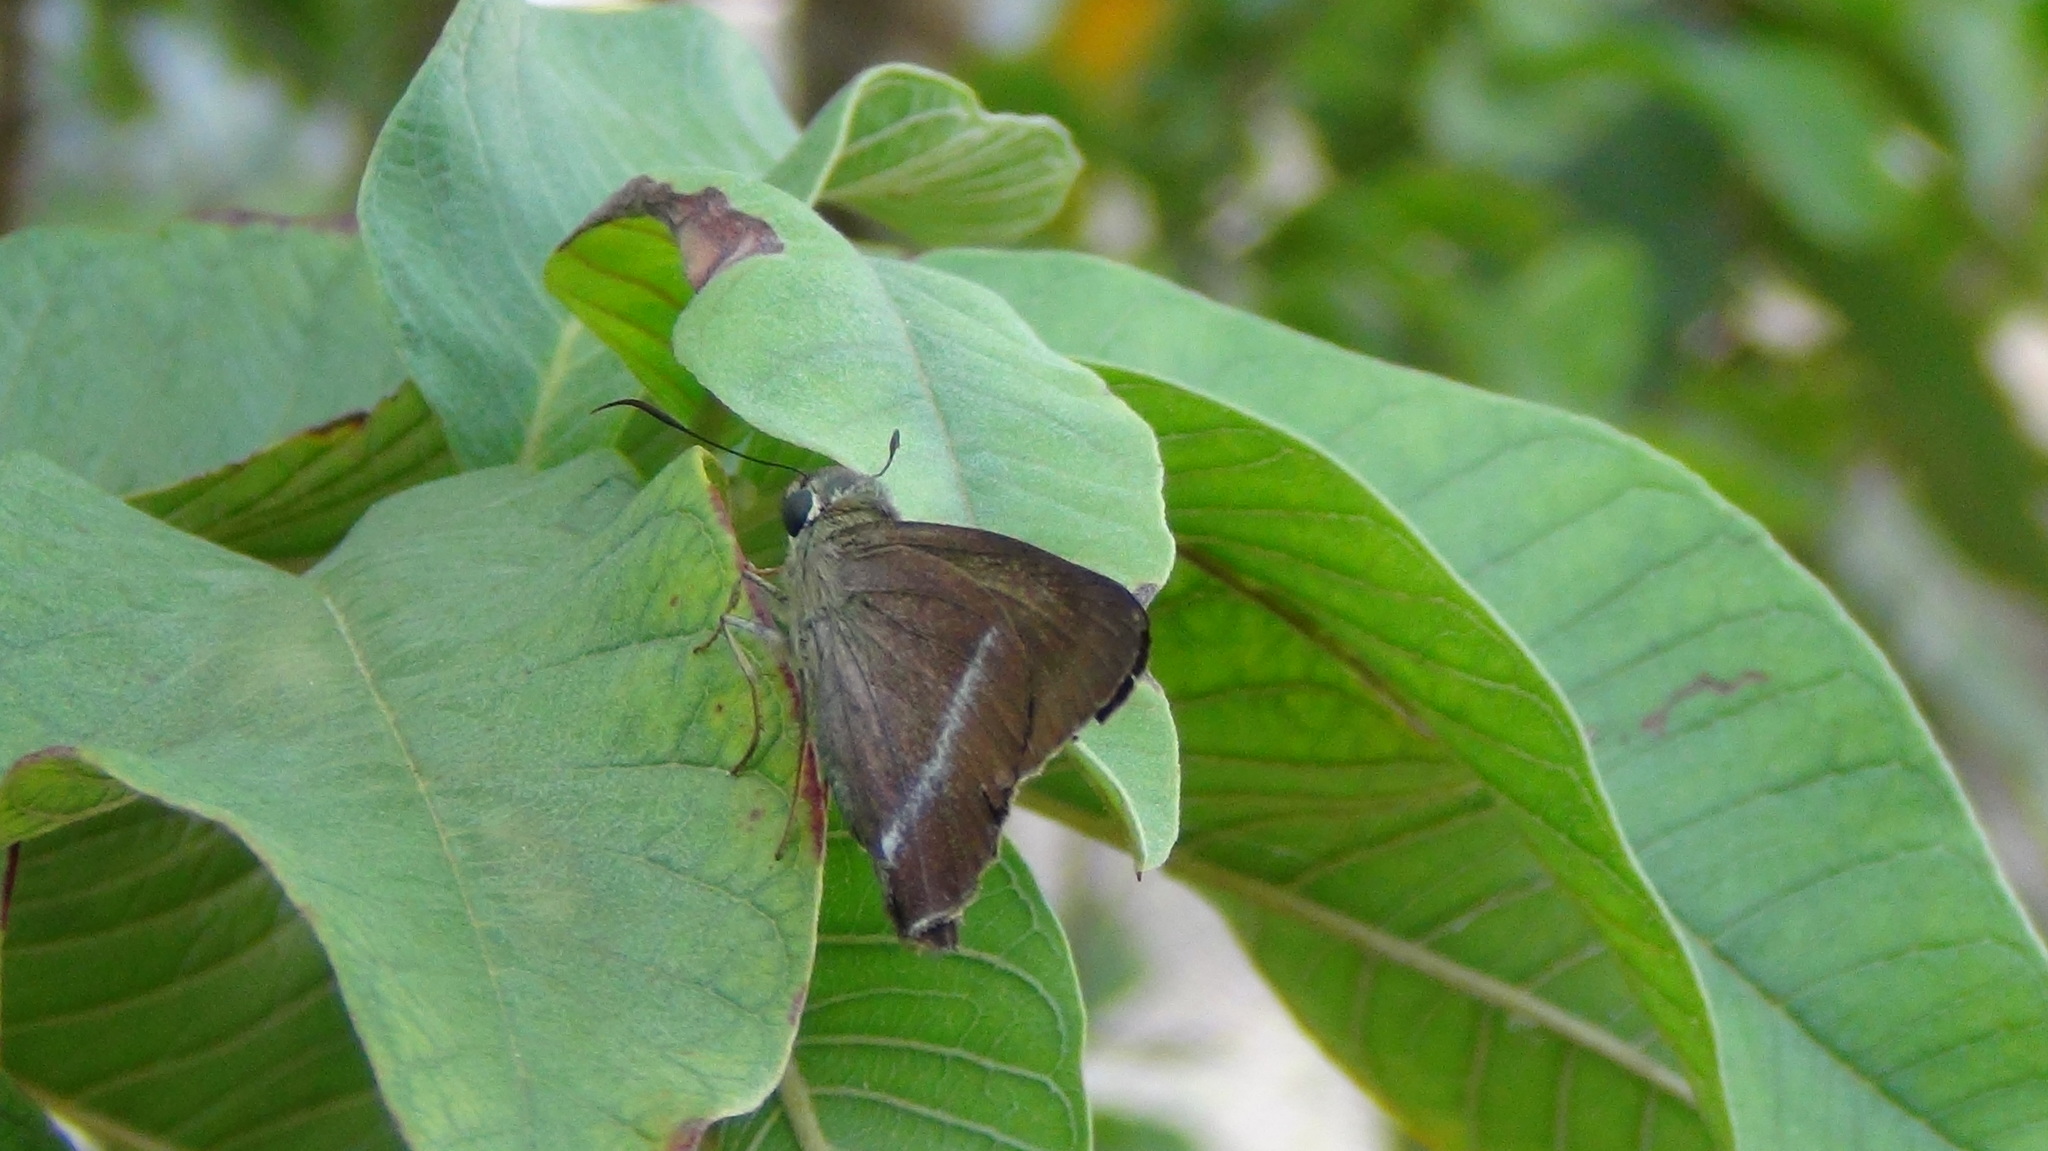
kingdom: Animalia
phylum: Arthropoda
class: Insecta
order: Lepidoptera
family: Hesperiidae
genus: Hasora
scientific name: Hasora chromus
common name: Common banded awl
